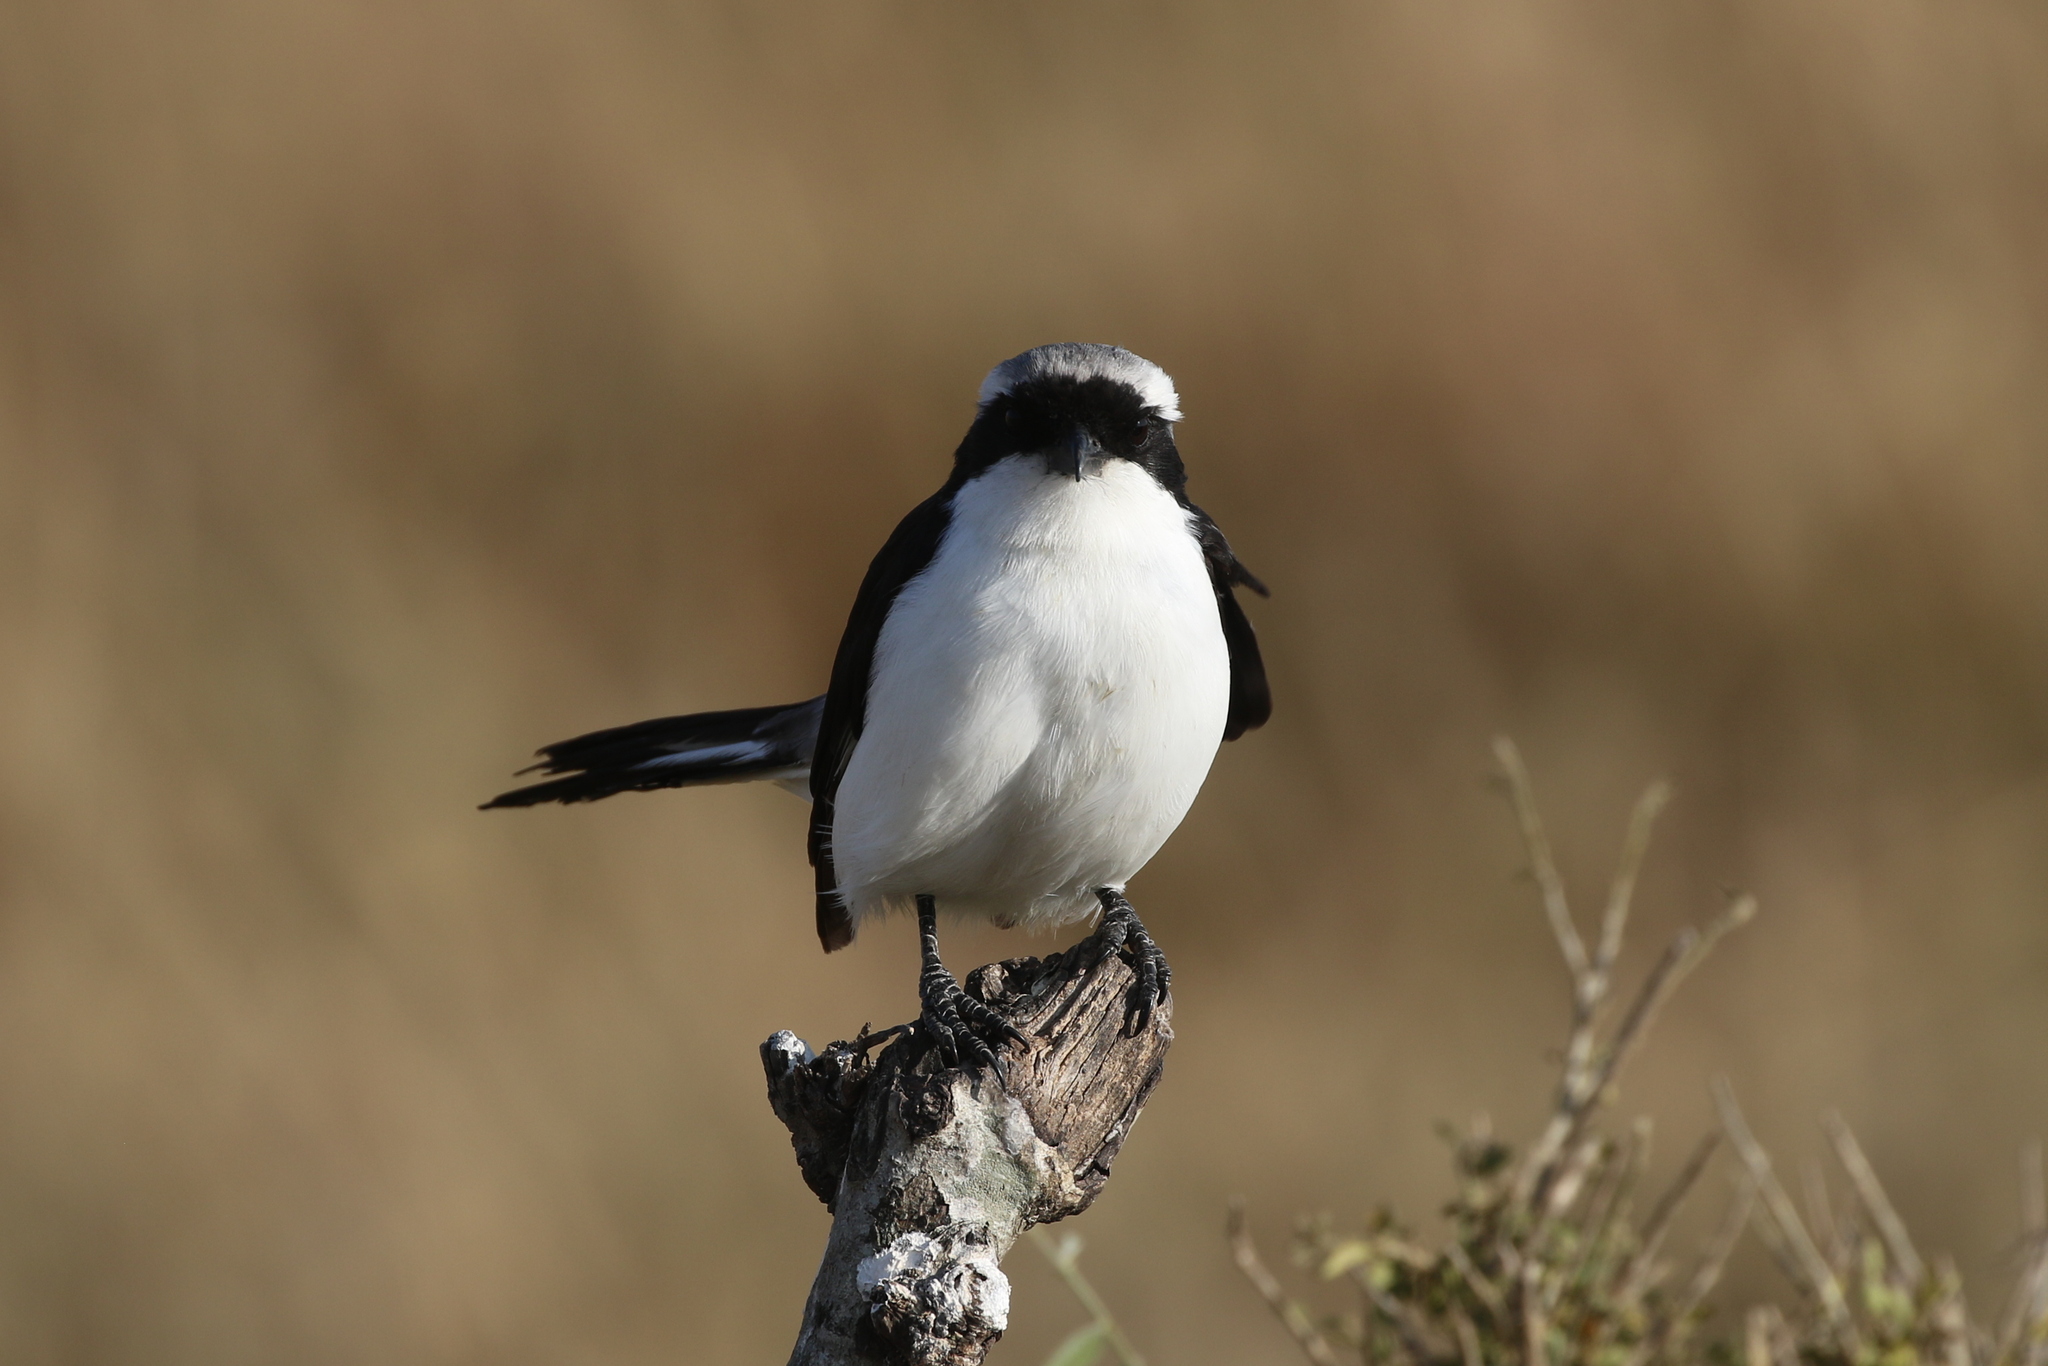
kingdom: Animalia
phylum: Chordata
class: Aves
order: Passeriformes
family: Laniidae
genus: Lanius
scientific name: Lanius excubitoroides
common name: Grey-backed fiscal
